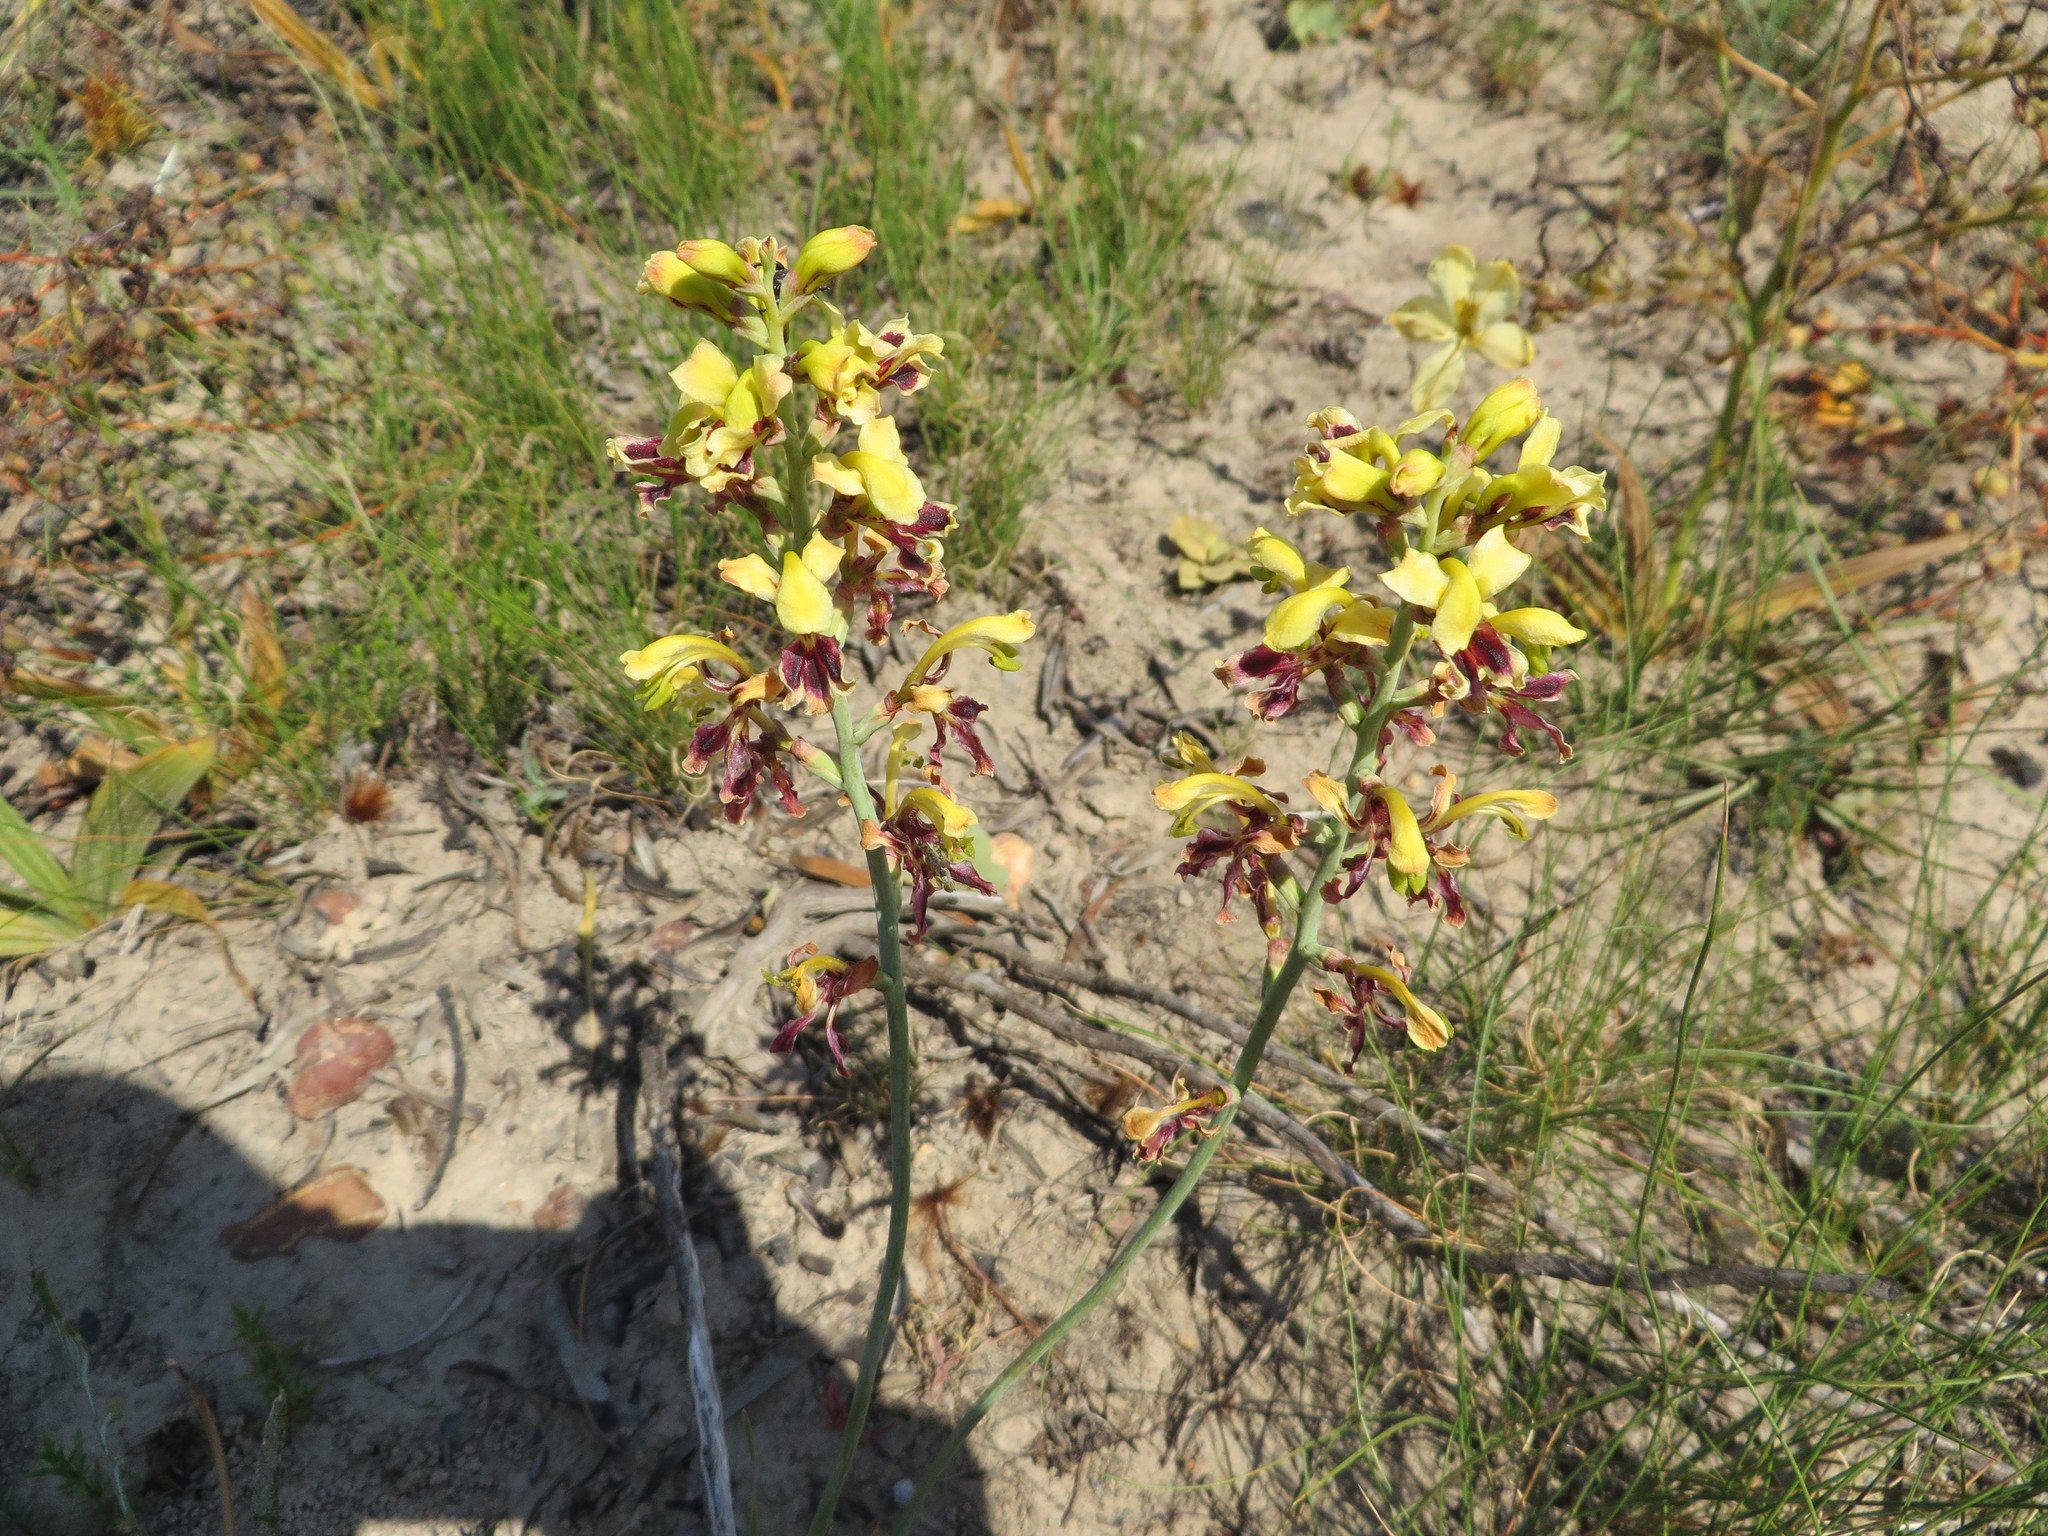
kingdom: Plantae
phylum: Tracheophyta
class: Liliopsida
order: Asparagales
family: Iridaceae
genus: Tritoniopsis
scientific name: Tritoniopsis parviflora
